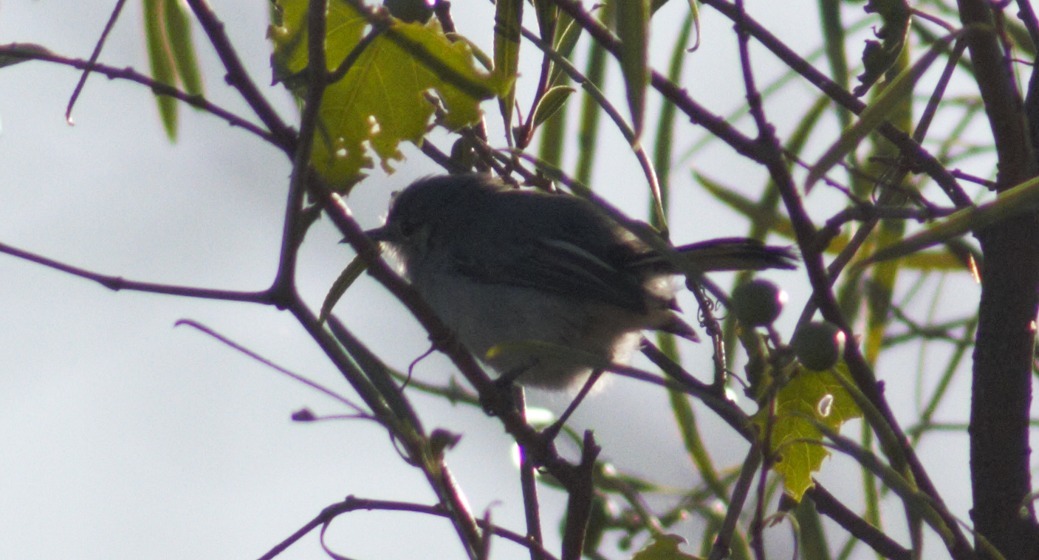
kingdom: Animalia
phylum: Chordata
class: Aves
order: Passeriformes
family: Polioptilidae
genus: Polioptila
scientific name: Polioptila dumicola
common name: Masked gnatcatcher
